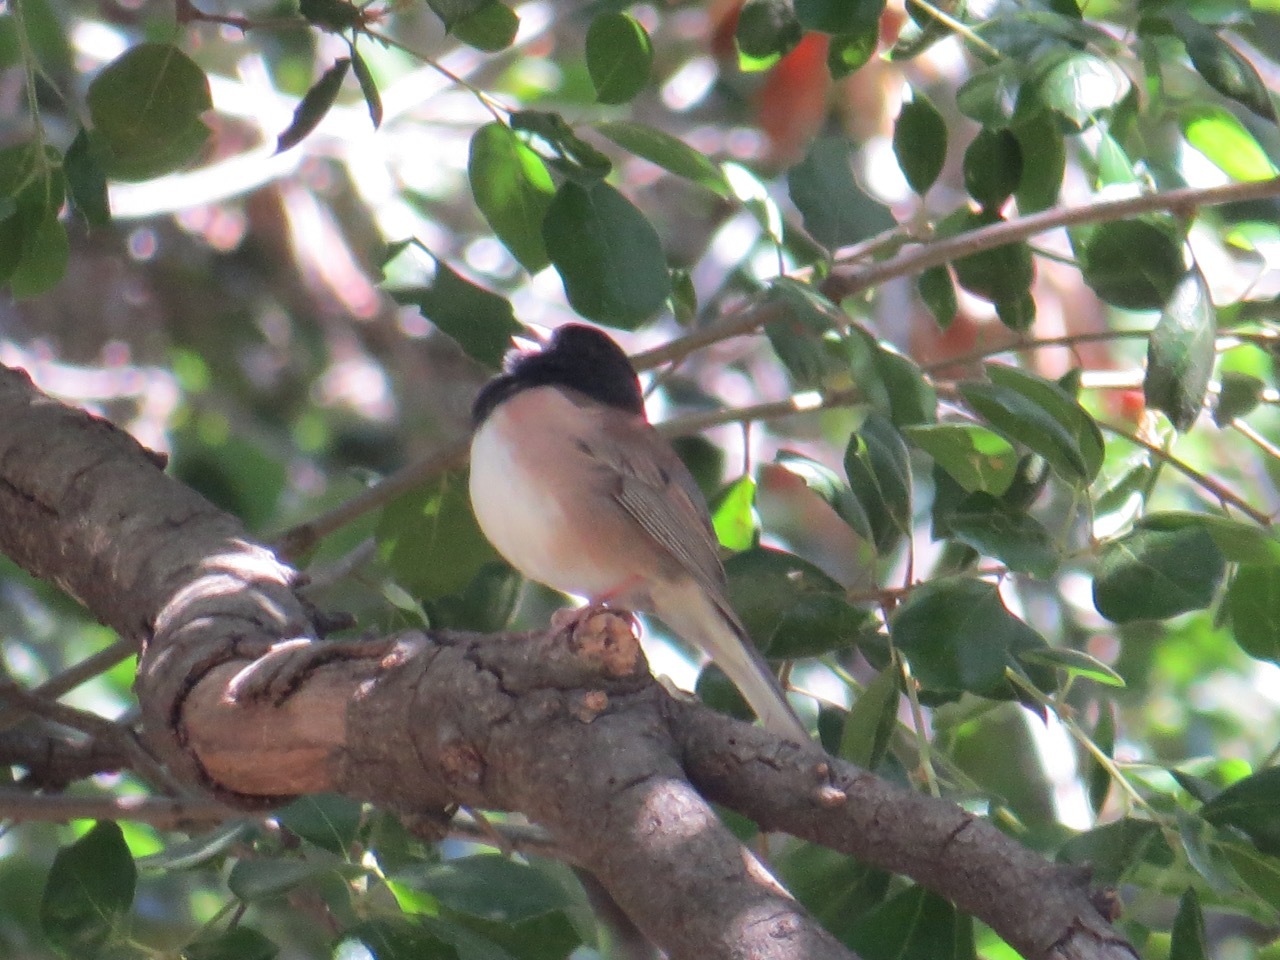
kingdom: Animalia
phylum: Chordata
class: Aves
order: Passeriformes
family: Passerellidae
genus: Junco
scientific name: Junco hyemalis
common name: Dark-eyed junco
